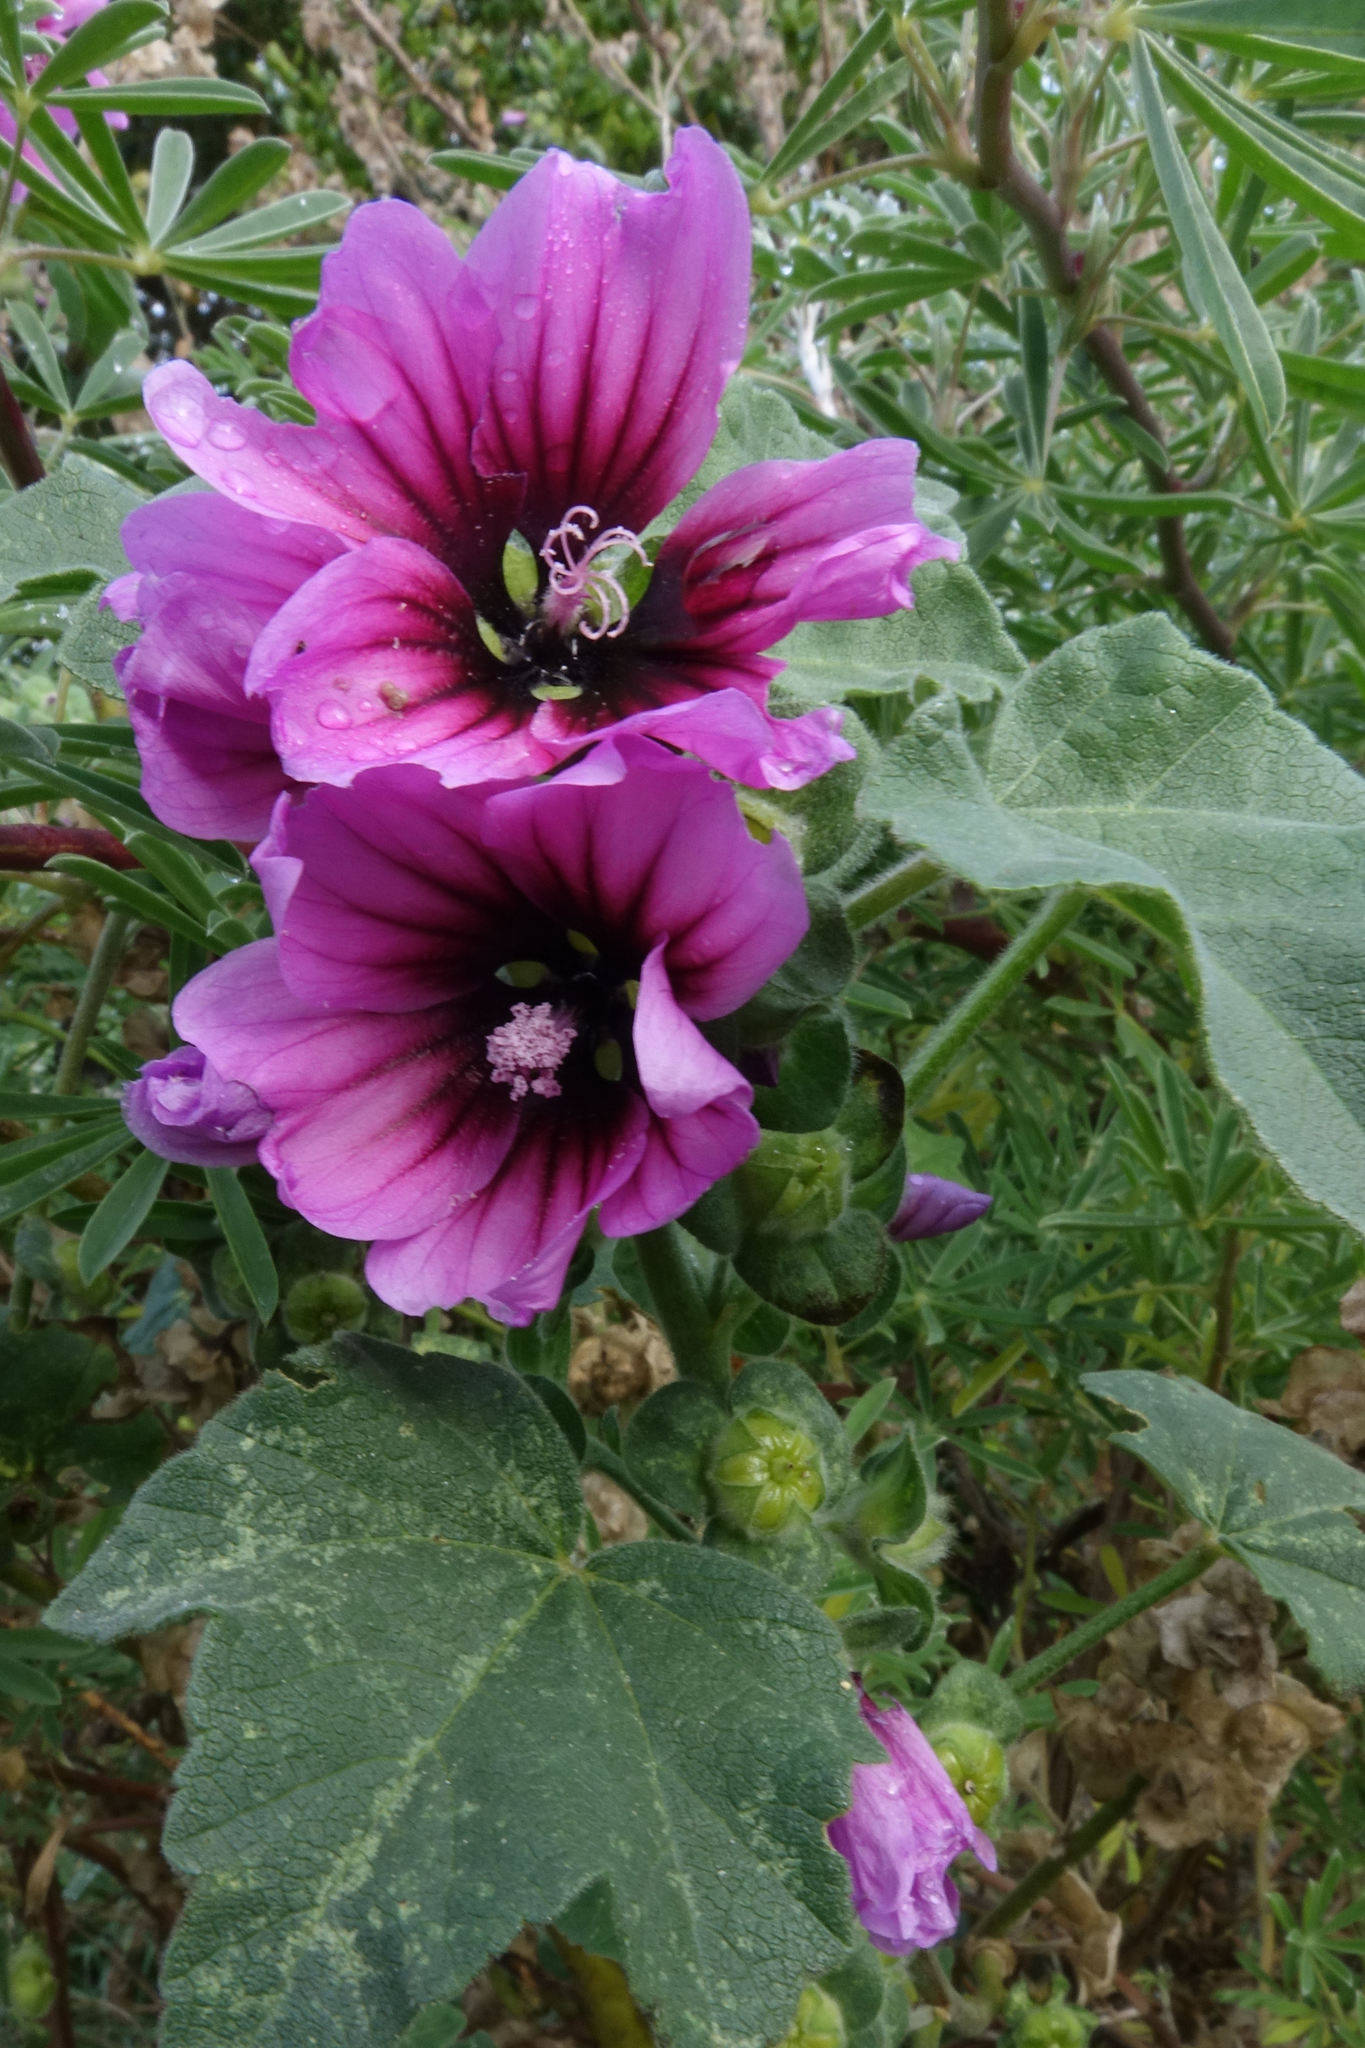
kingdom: Plantae
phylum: Tracheophyta
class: Magnoliopsida
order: Malvales
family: Malvaceae
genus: Malva
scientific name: Malva arborea
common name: Tree mallow
